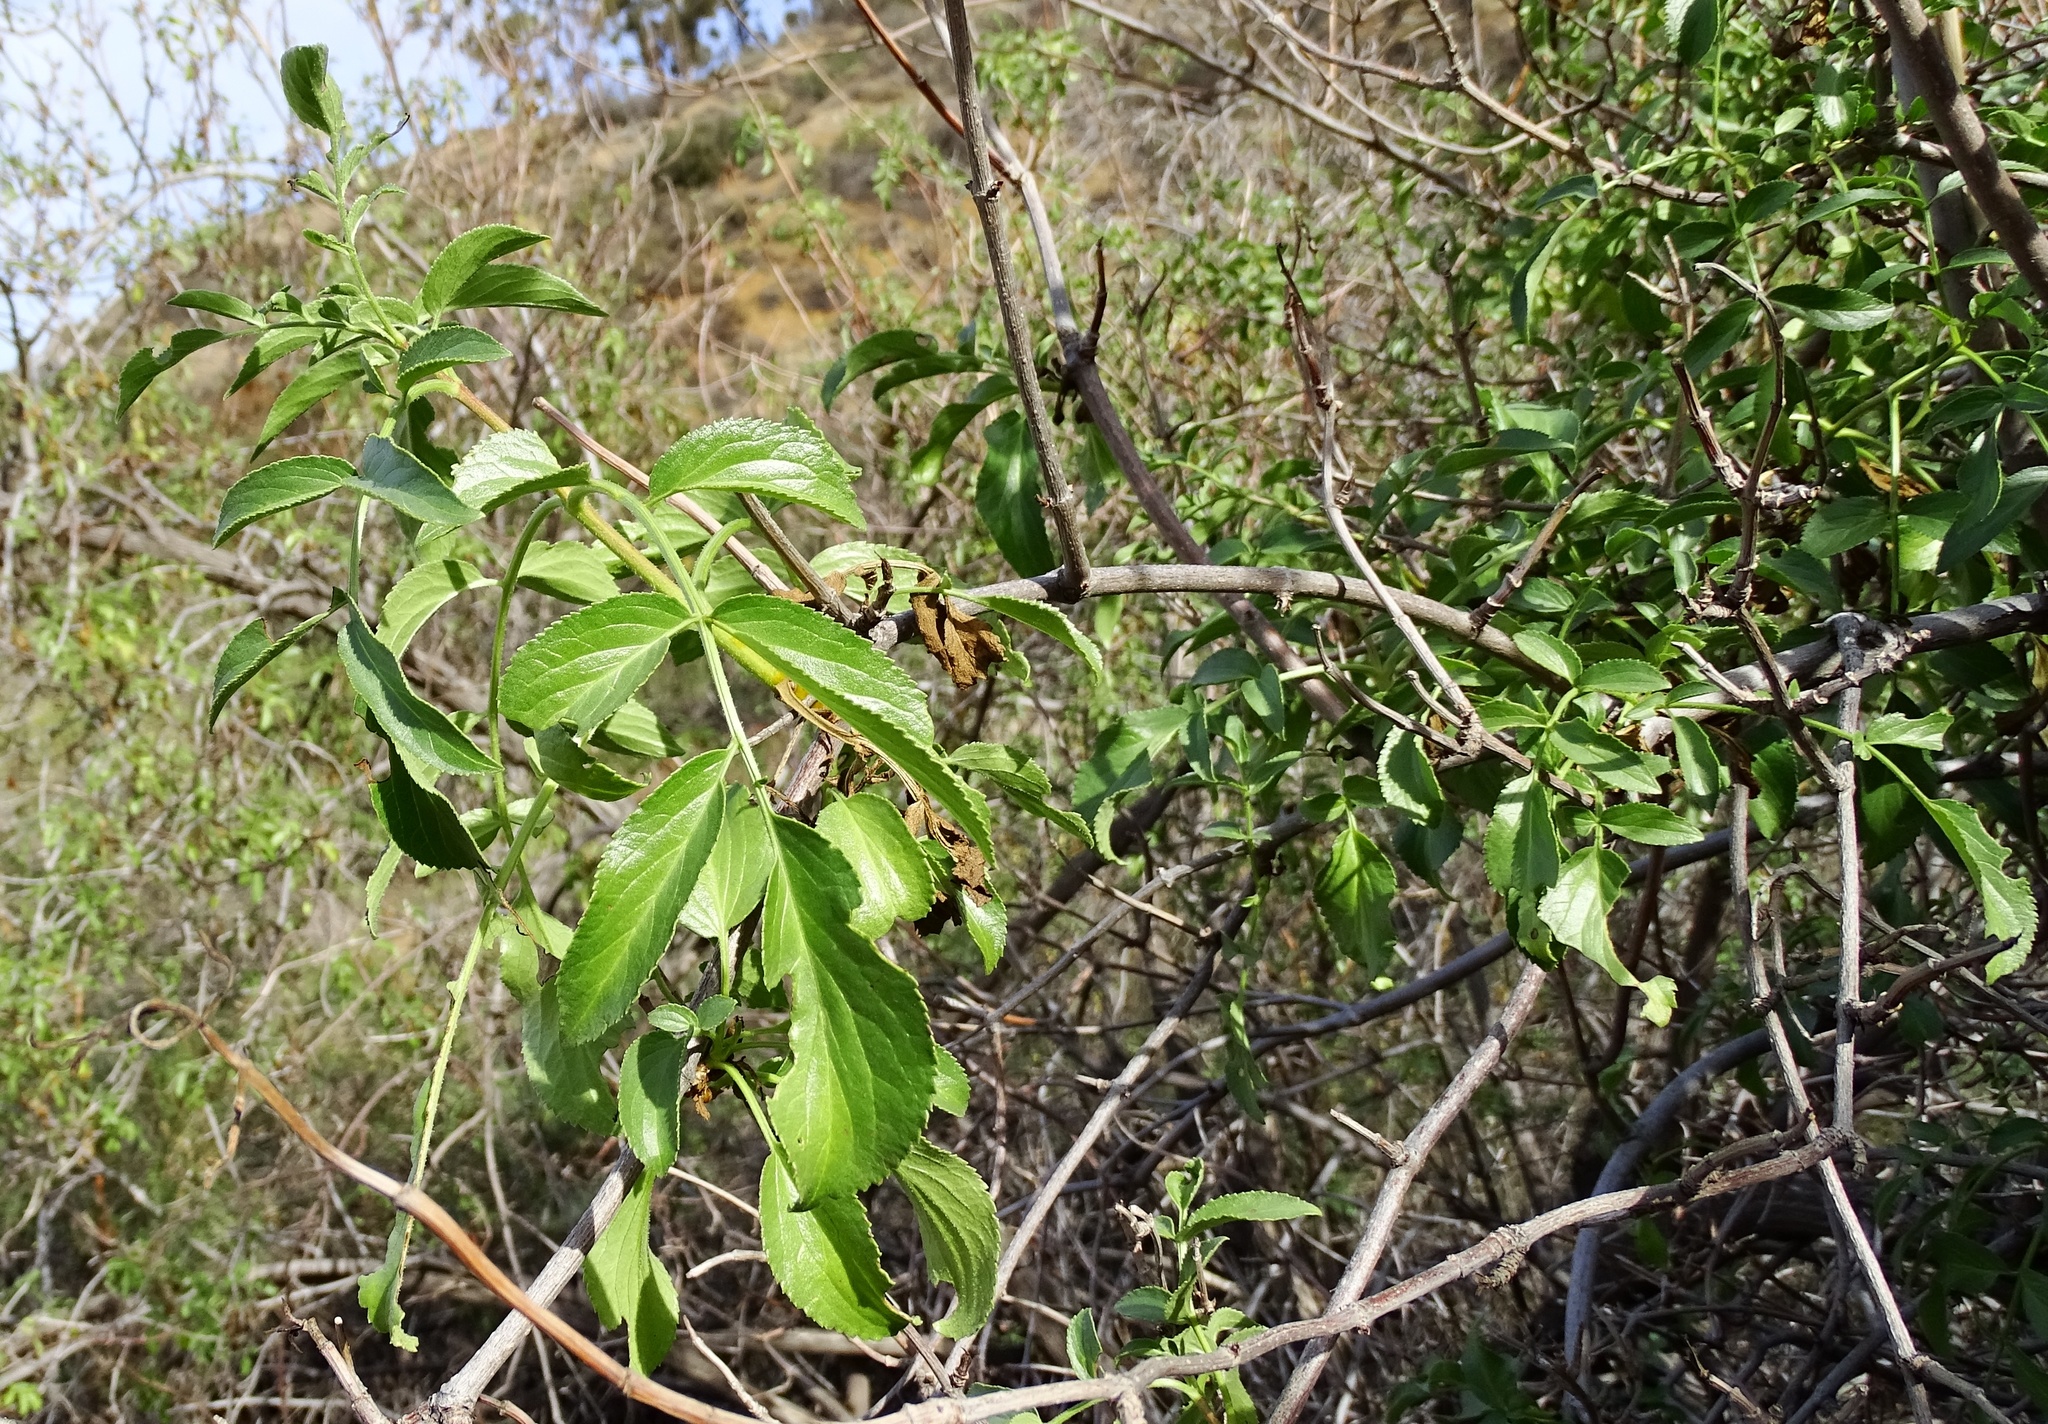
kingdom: Plantae
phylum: Tracheophyta
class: Magnoliopsida
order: Dipsacales
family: Viburnaceae
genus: Sambucus
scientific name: Sambucus cerulea
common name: Blue elder
